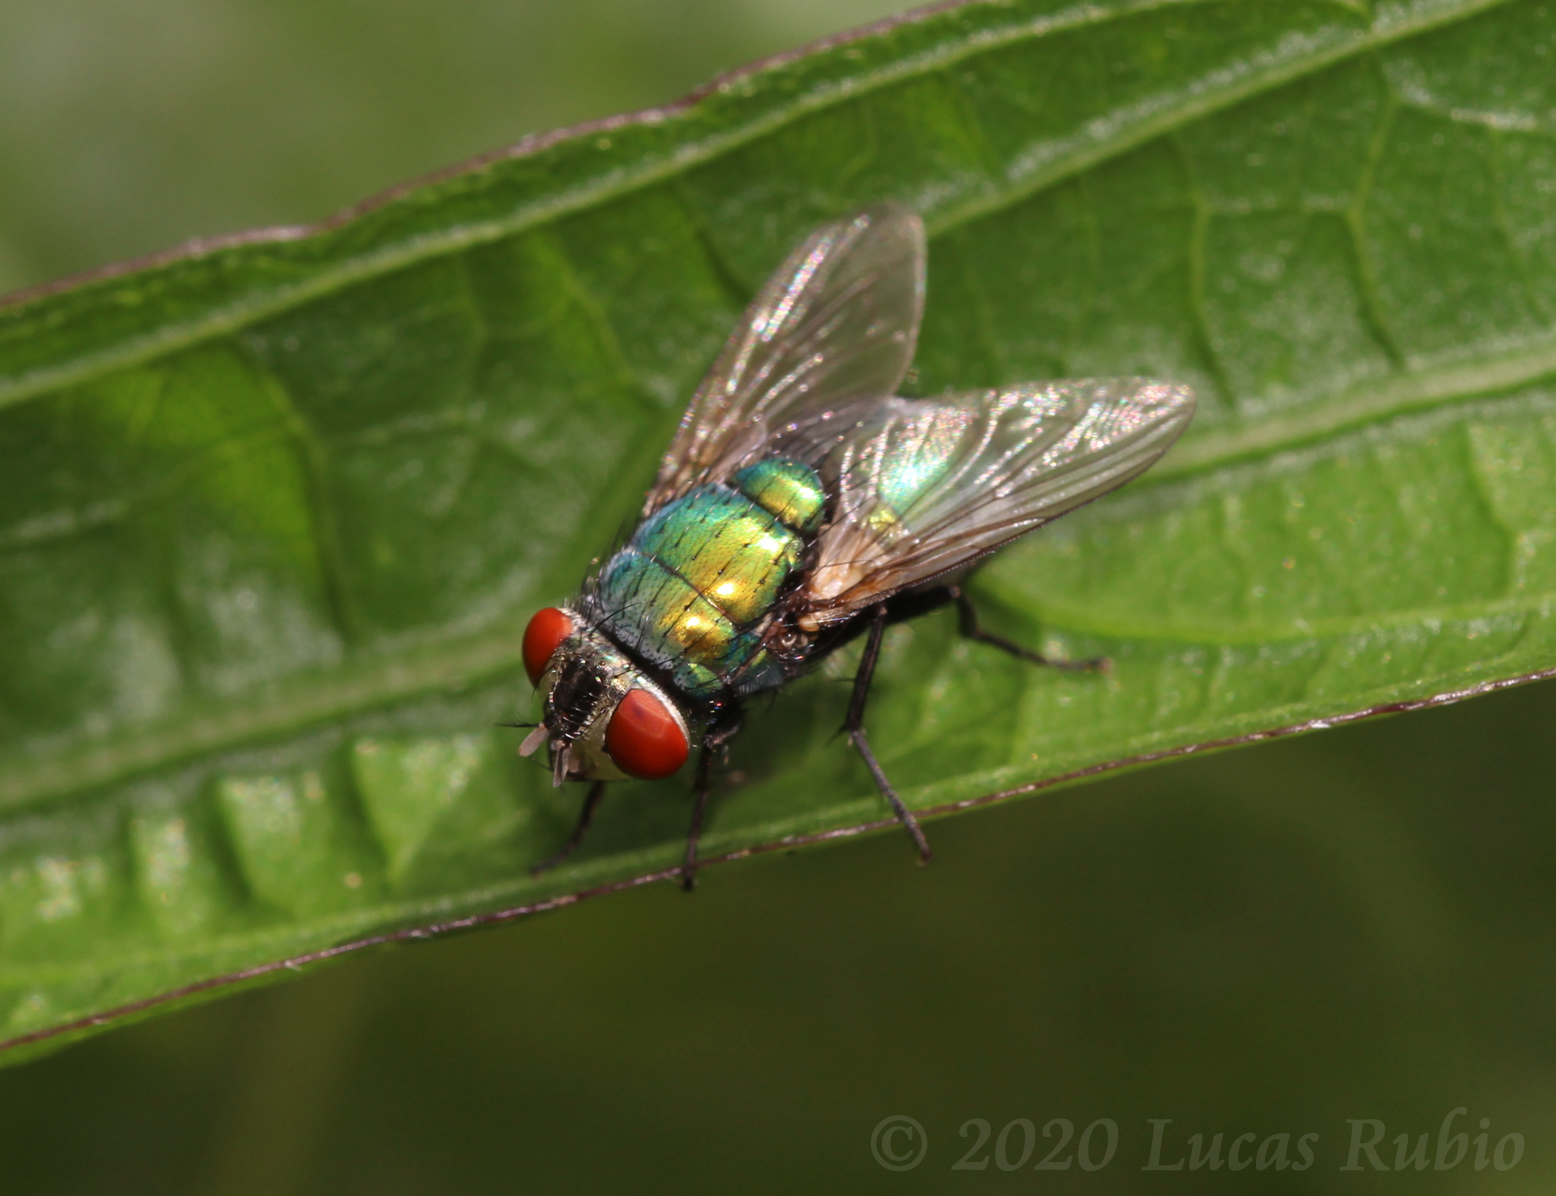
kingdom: Animalia
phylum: Arthropoda
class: Insecta
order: Diptera
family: Calliphoridae
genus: Lucilia
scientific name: Lucilia sericata
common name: Blow fly
